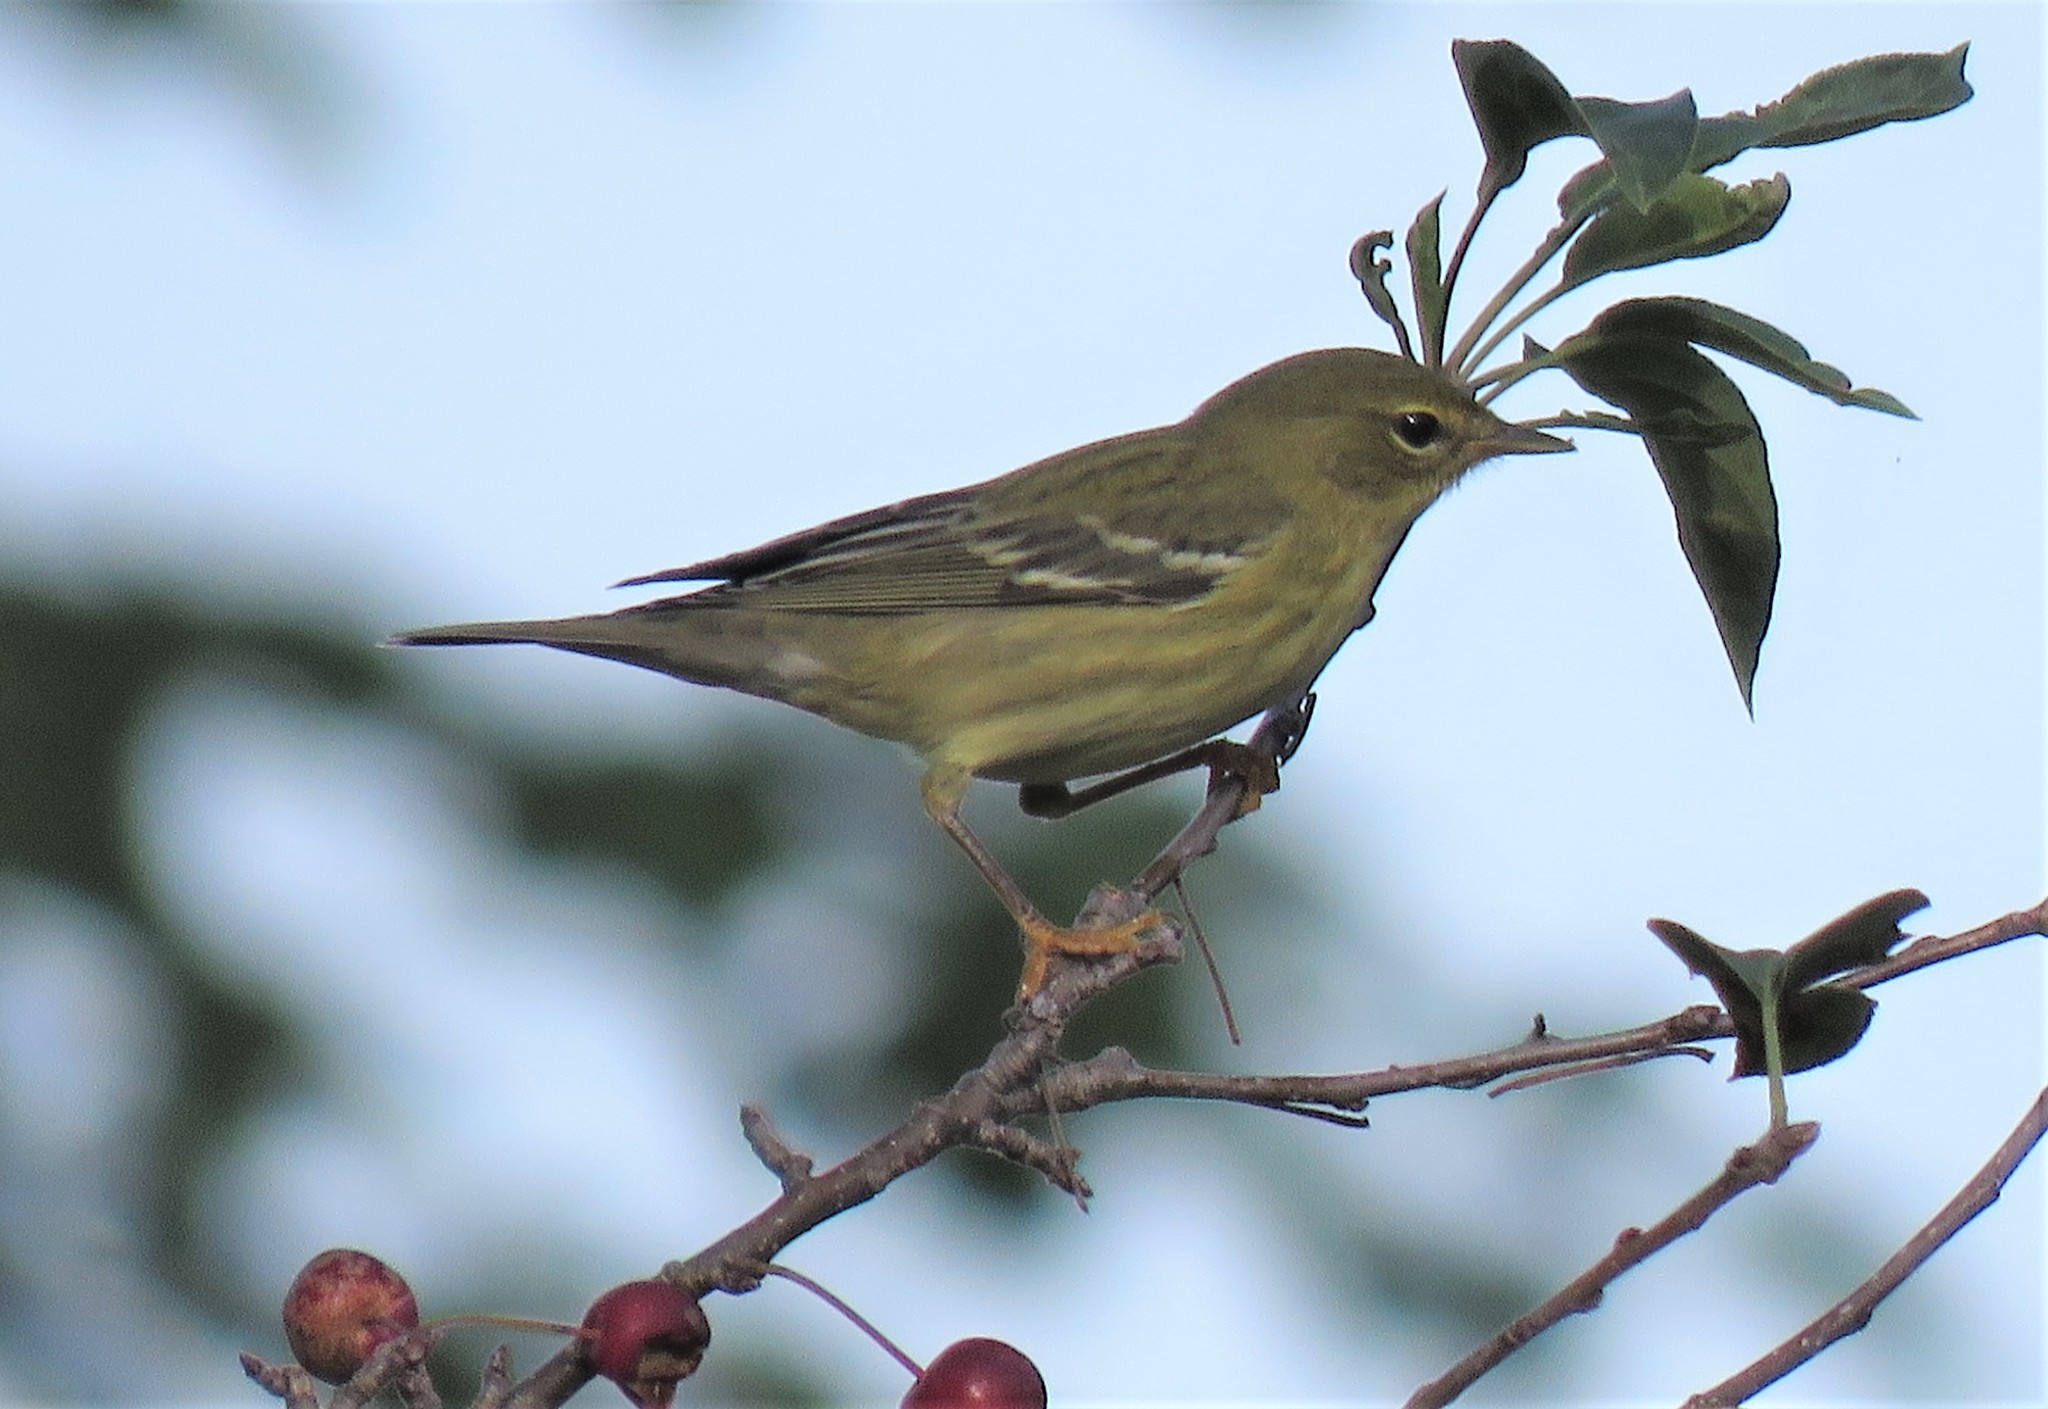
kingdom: Animalia
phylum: Chordata
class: Aves
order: Passeriformes
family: Parulidae
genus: Setophaga
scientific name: Setophaga striata
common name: Blackpoll warbler
